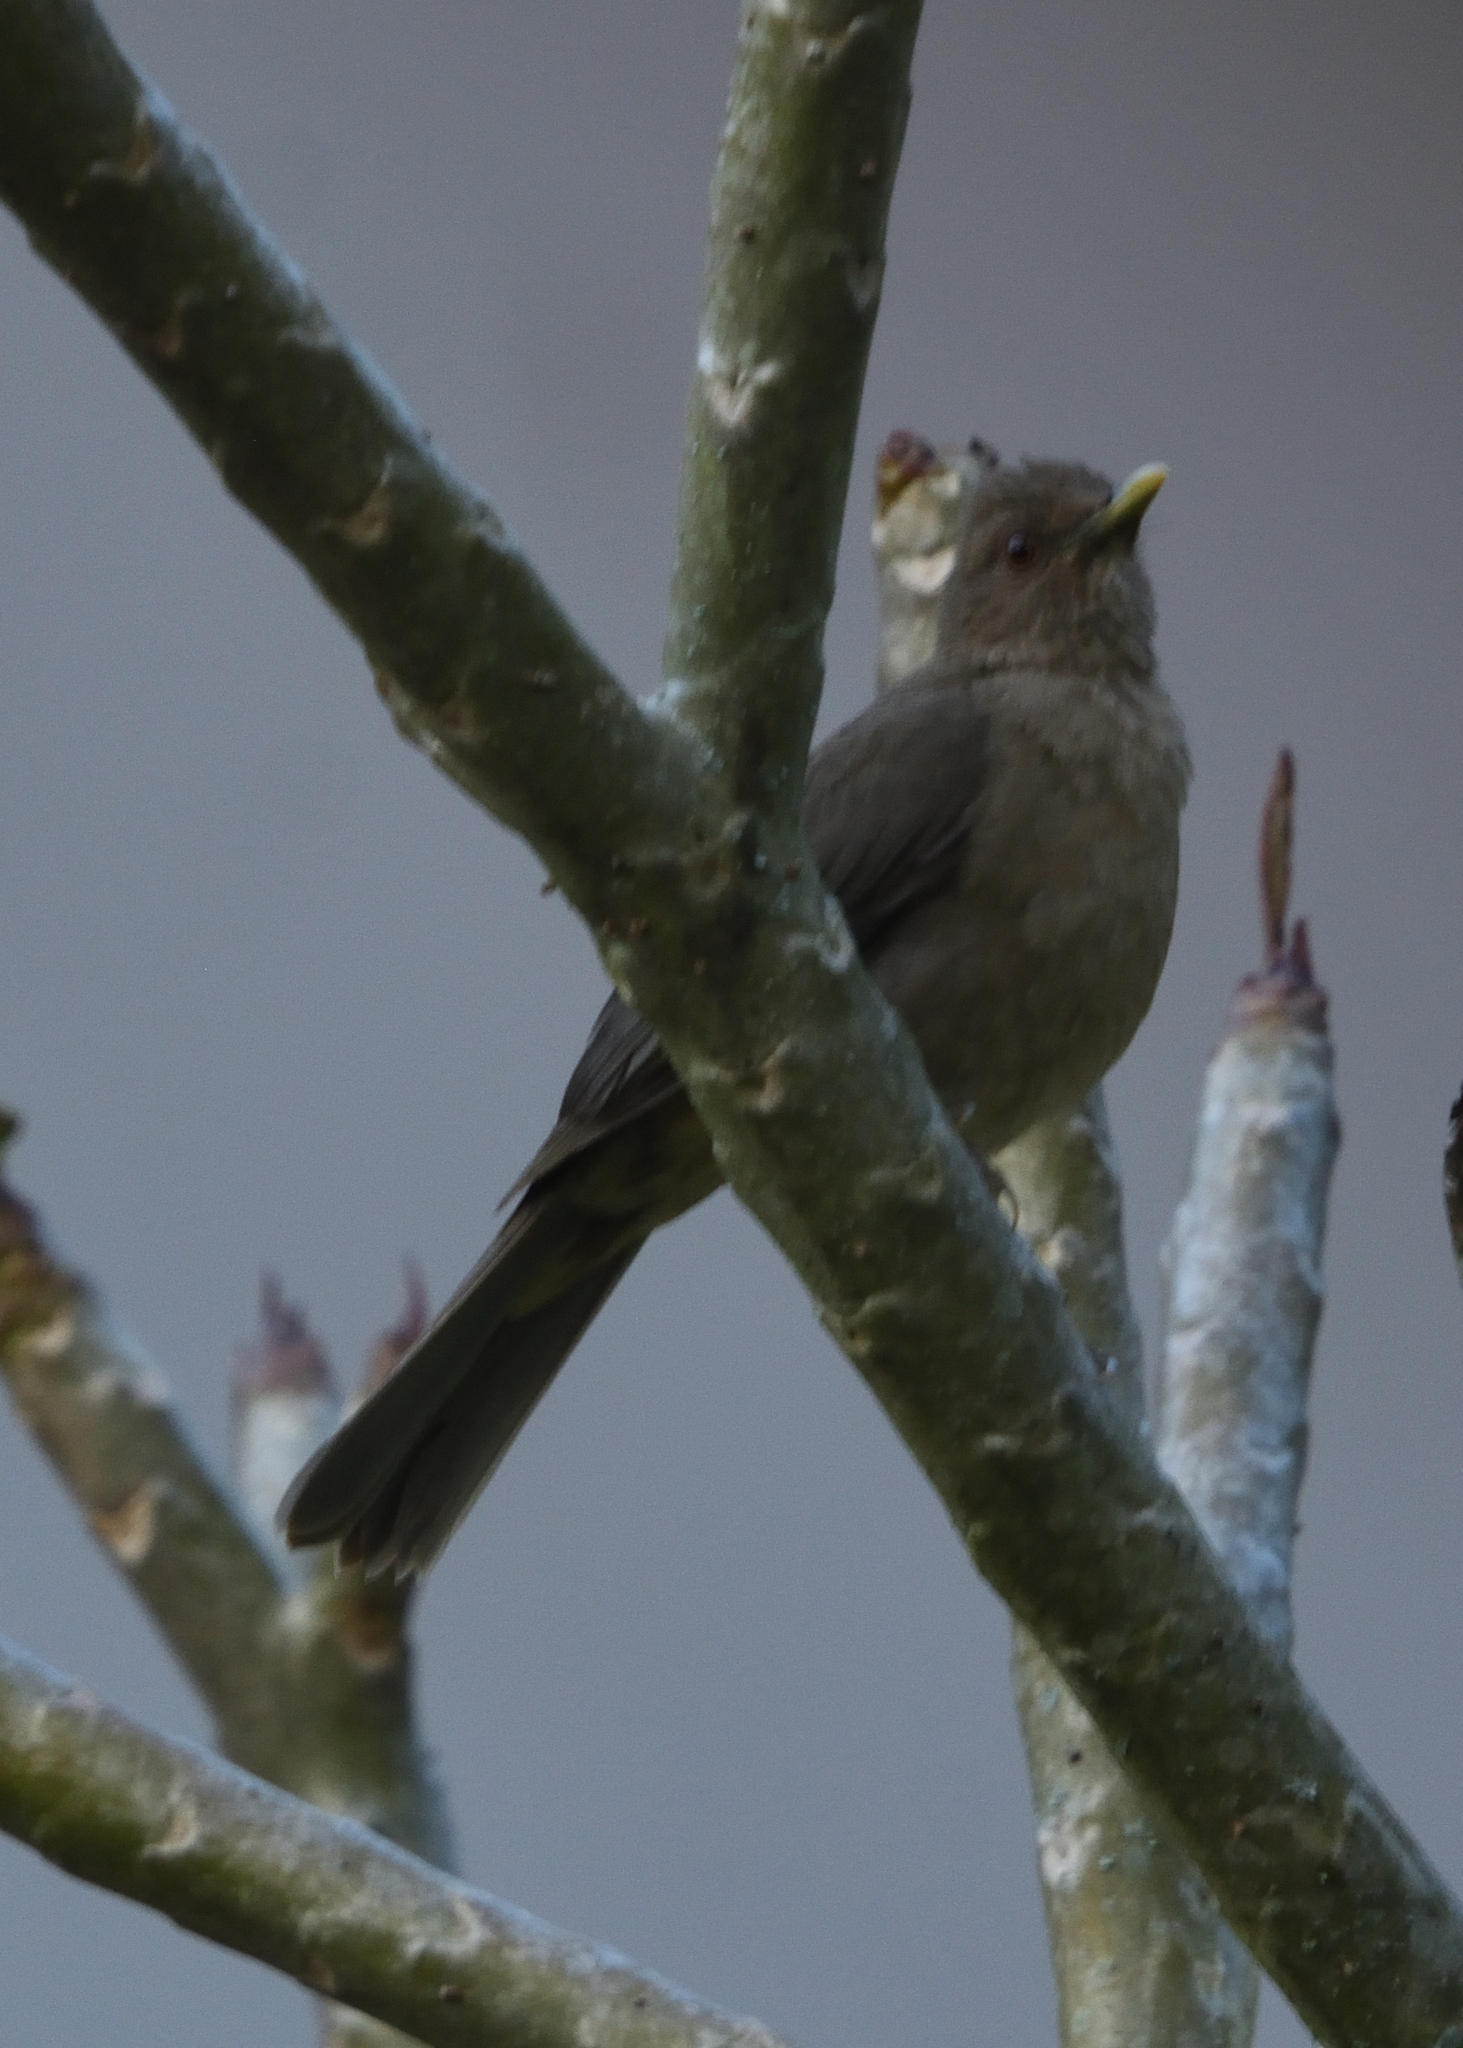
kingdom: Animalia
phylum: Chordata
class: Aves
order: Passeriformes
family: Turdidae
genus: Turdus
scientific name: Turdus grayi
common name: Clay-colored thrush
